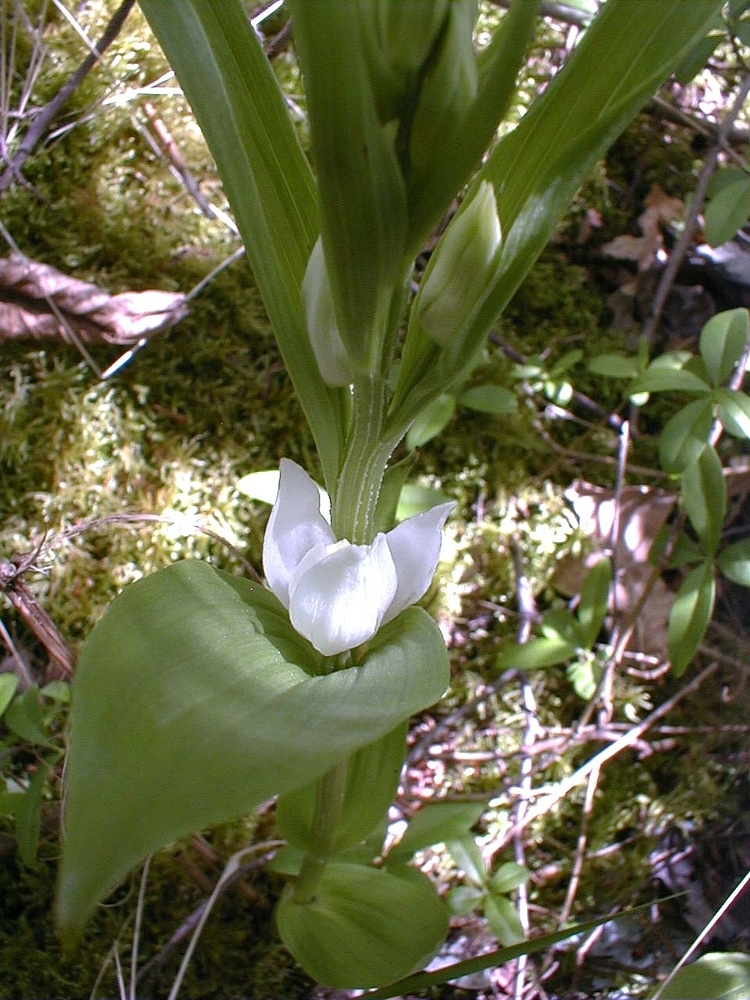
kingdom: Plantae
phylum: Tracheophyta
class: Liliopsida
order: Asparagales
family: Orchidaceae
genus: Cephalanthera
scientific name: Cephalanthera damasonium
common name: White helleborine
